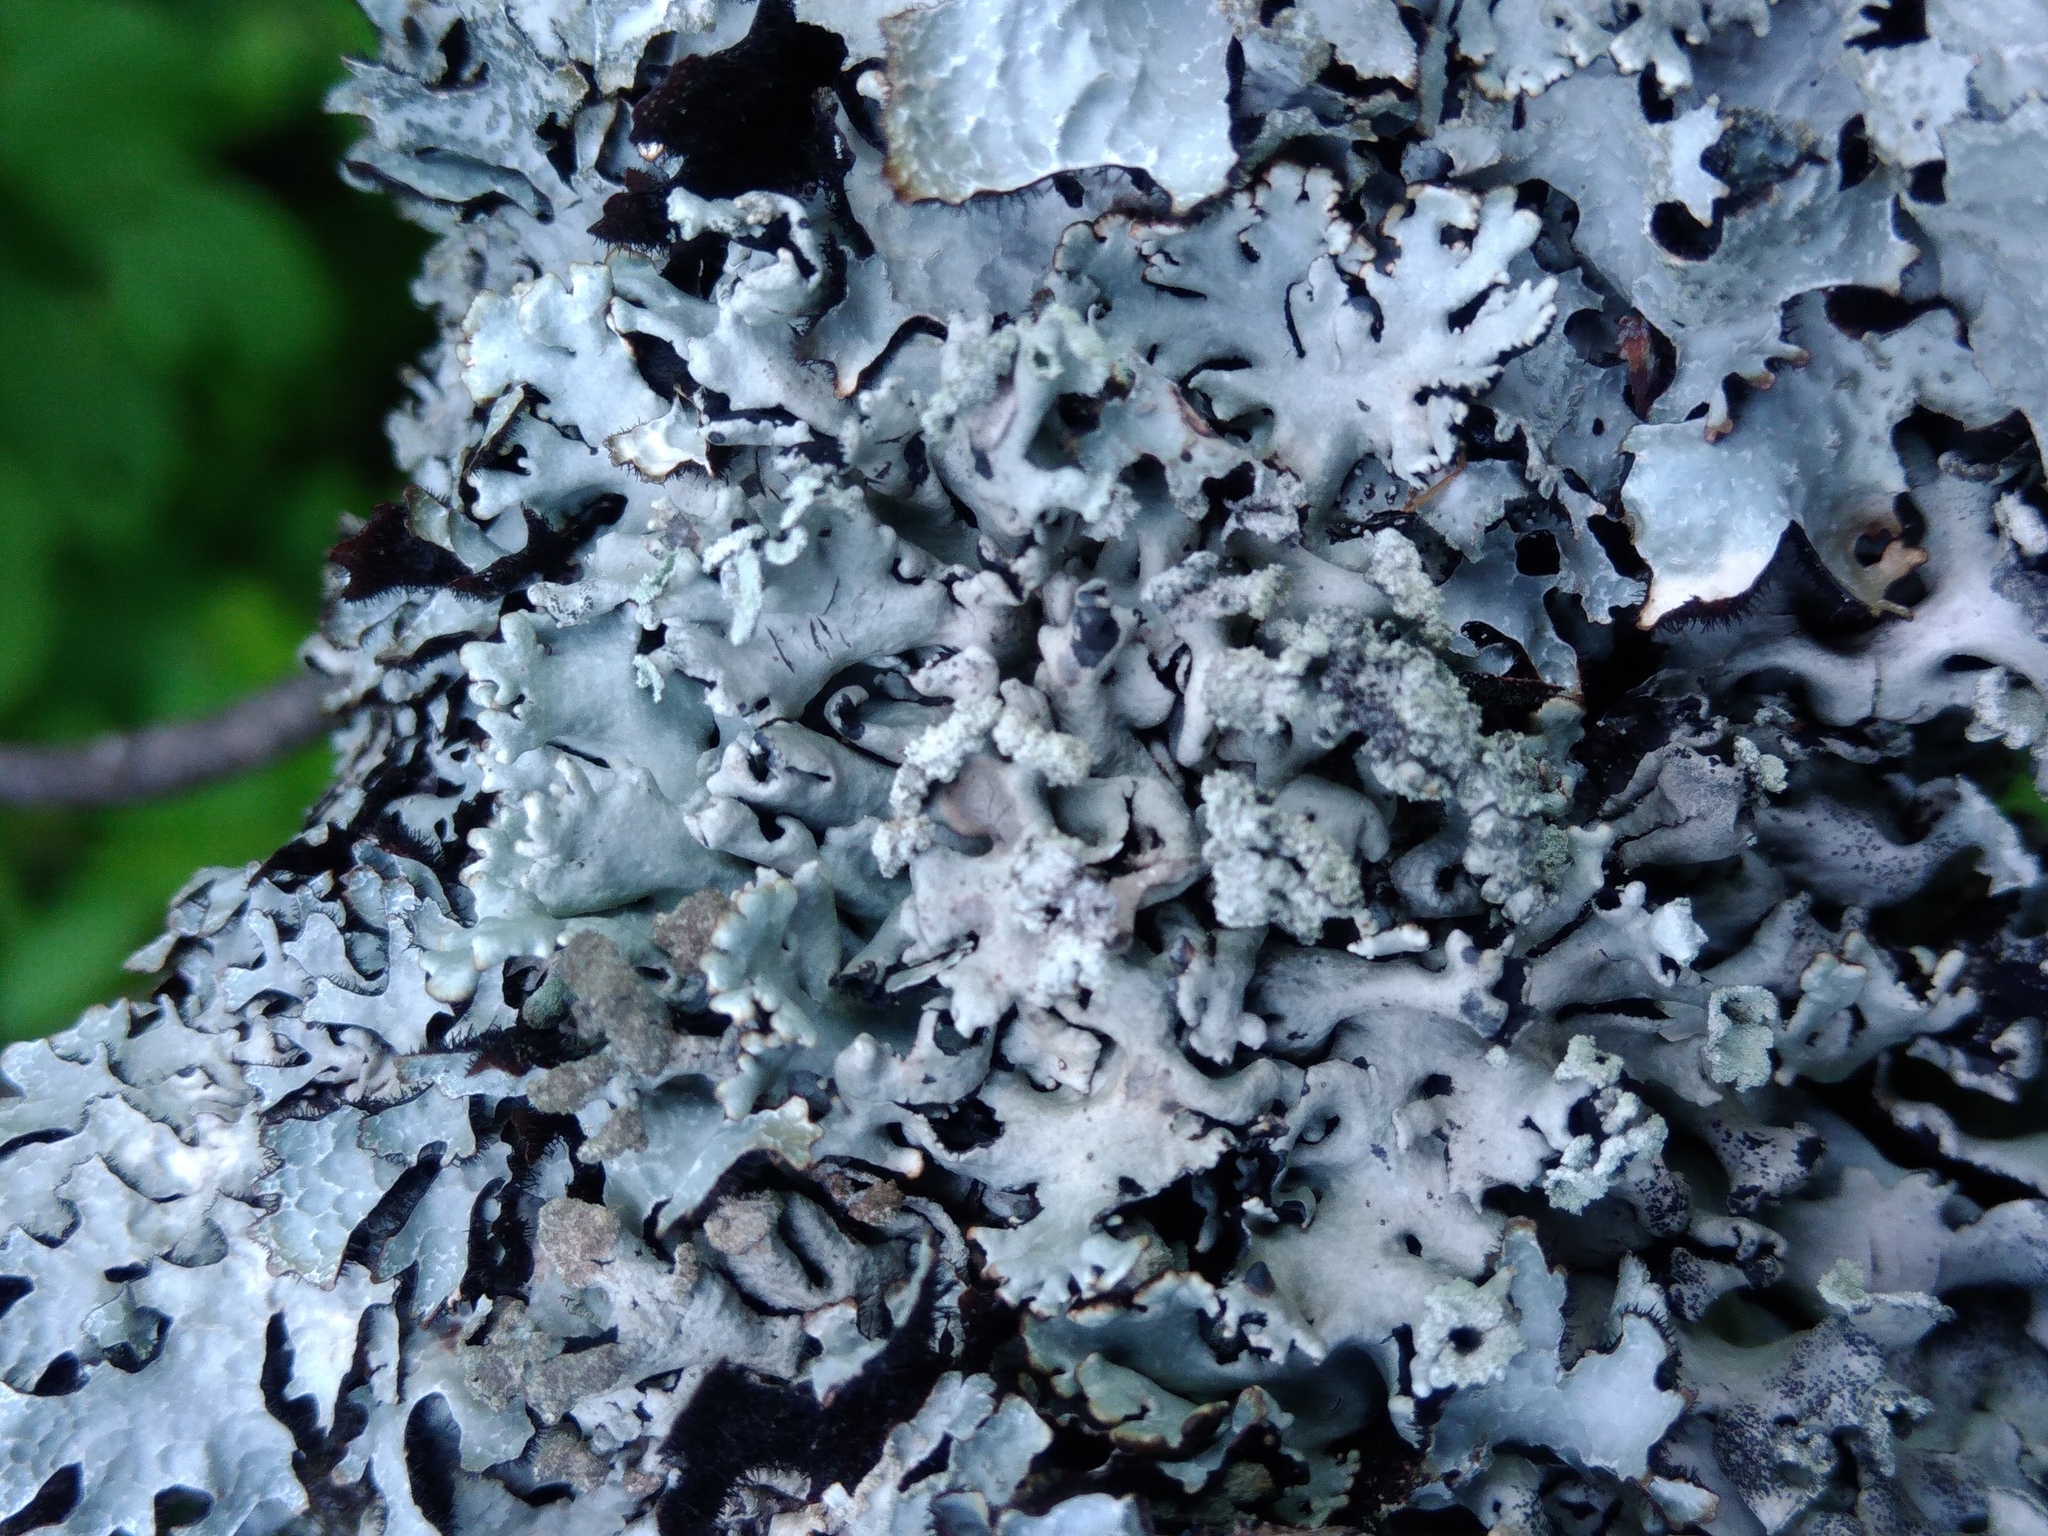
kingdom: Fungi
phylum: Ascomycota
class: Lecanoromycetes
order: Lecanorales
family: Parmeliaceae
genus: Hypogymnia
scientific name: Hypogymnia physodes
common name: Dark crottle
